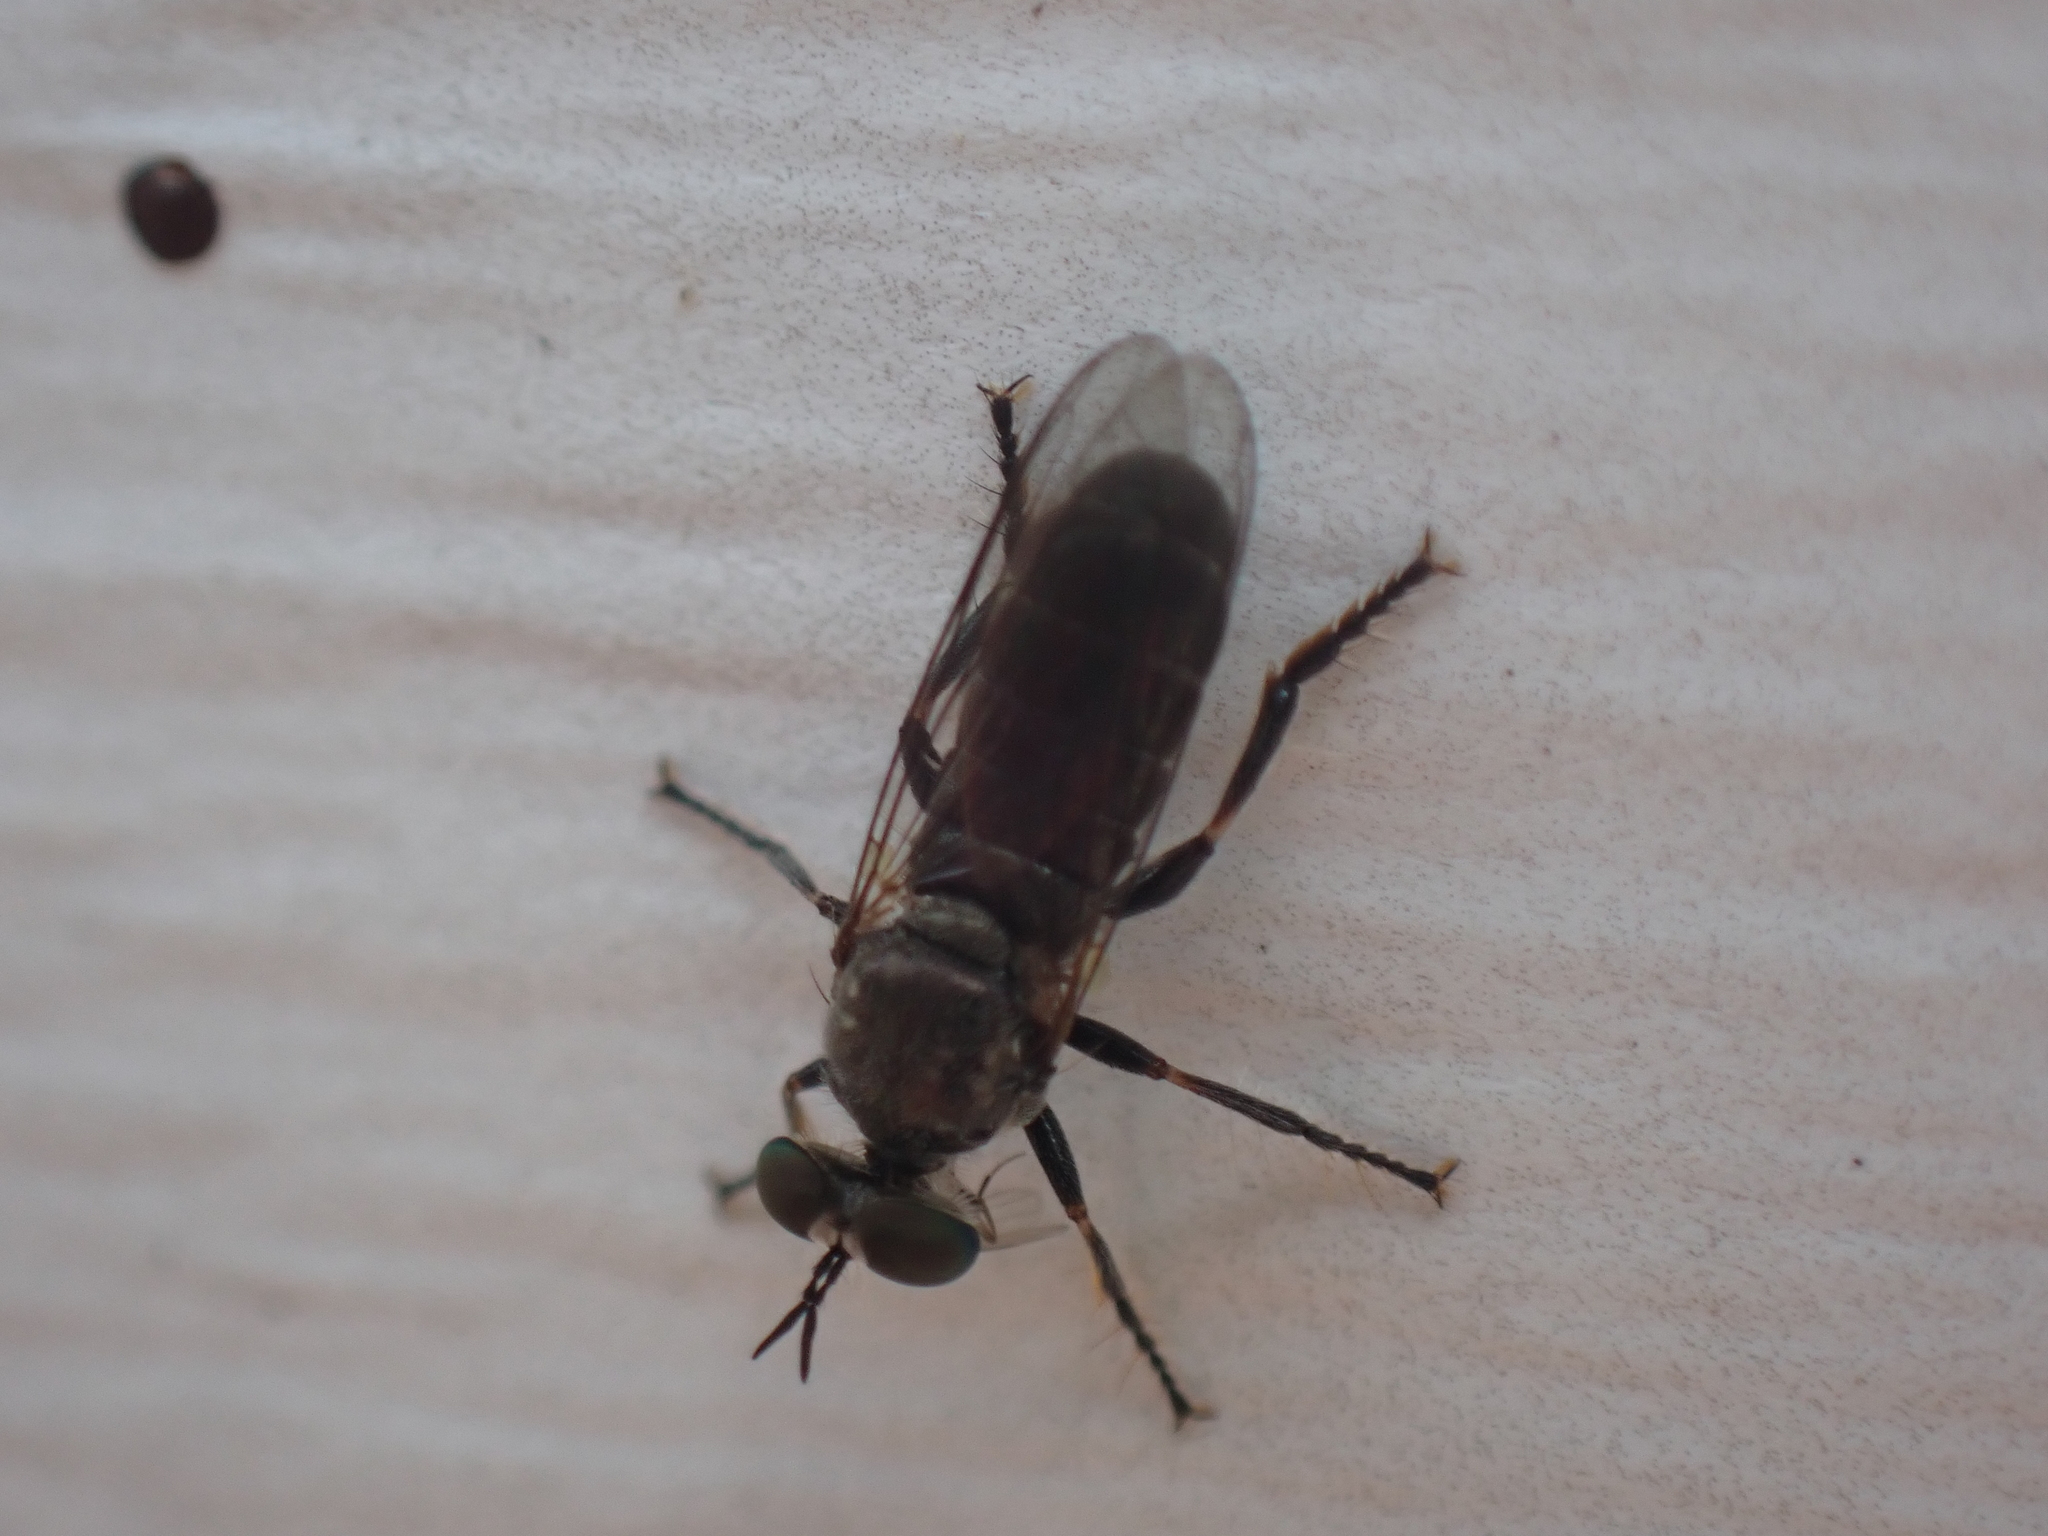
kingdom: Animalia
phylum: Arthropoda
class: Insecta
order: Diptera
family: Asilidae
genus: Atomosia
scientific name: Atomosia puella
